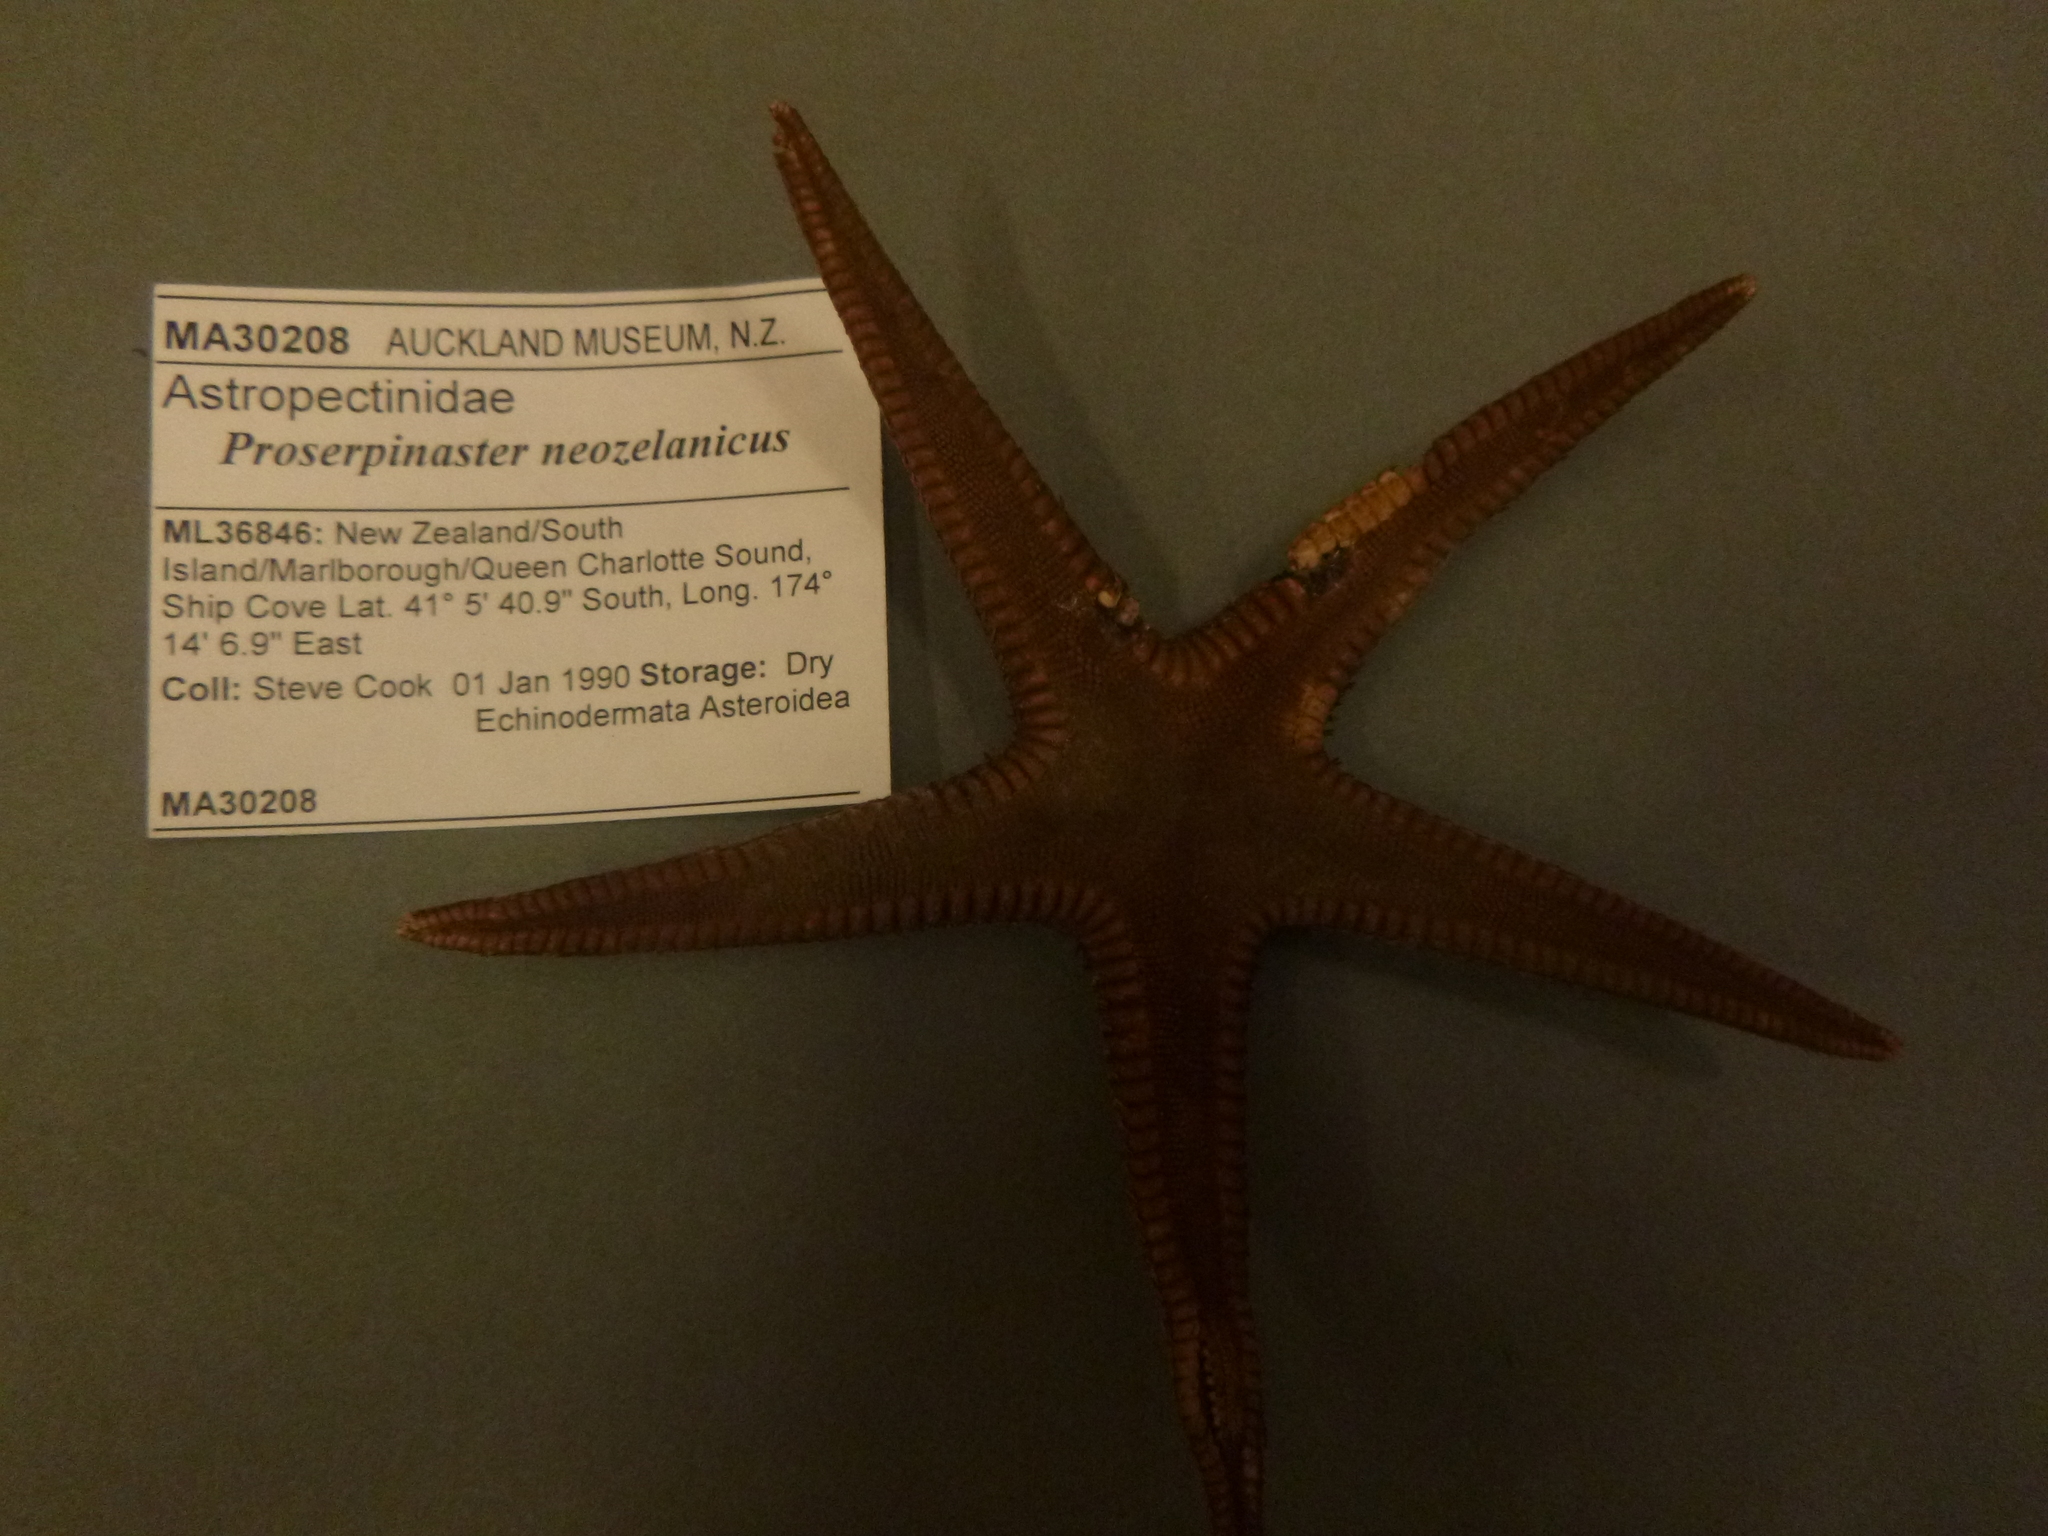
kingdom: Animalia
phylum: Echinodermata
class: Asteroidea
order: Paxillosida
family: Astropectinidae
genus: Proserpinaster
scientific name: Proserpinaster neozelanicus
